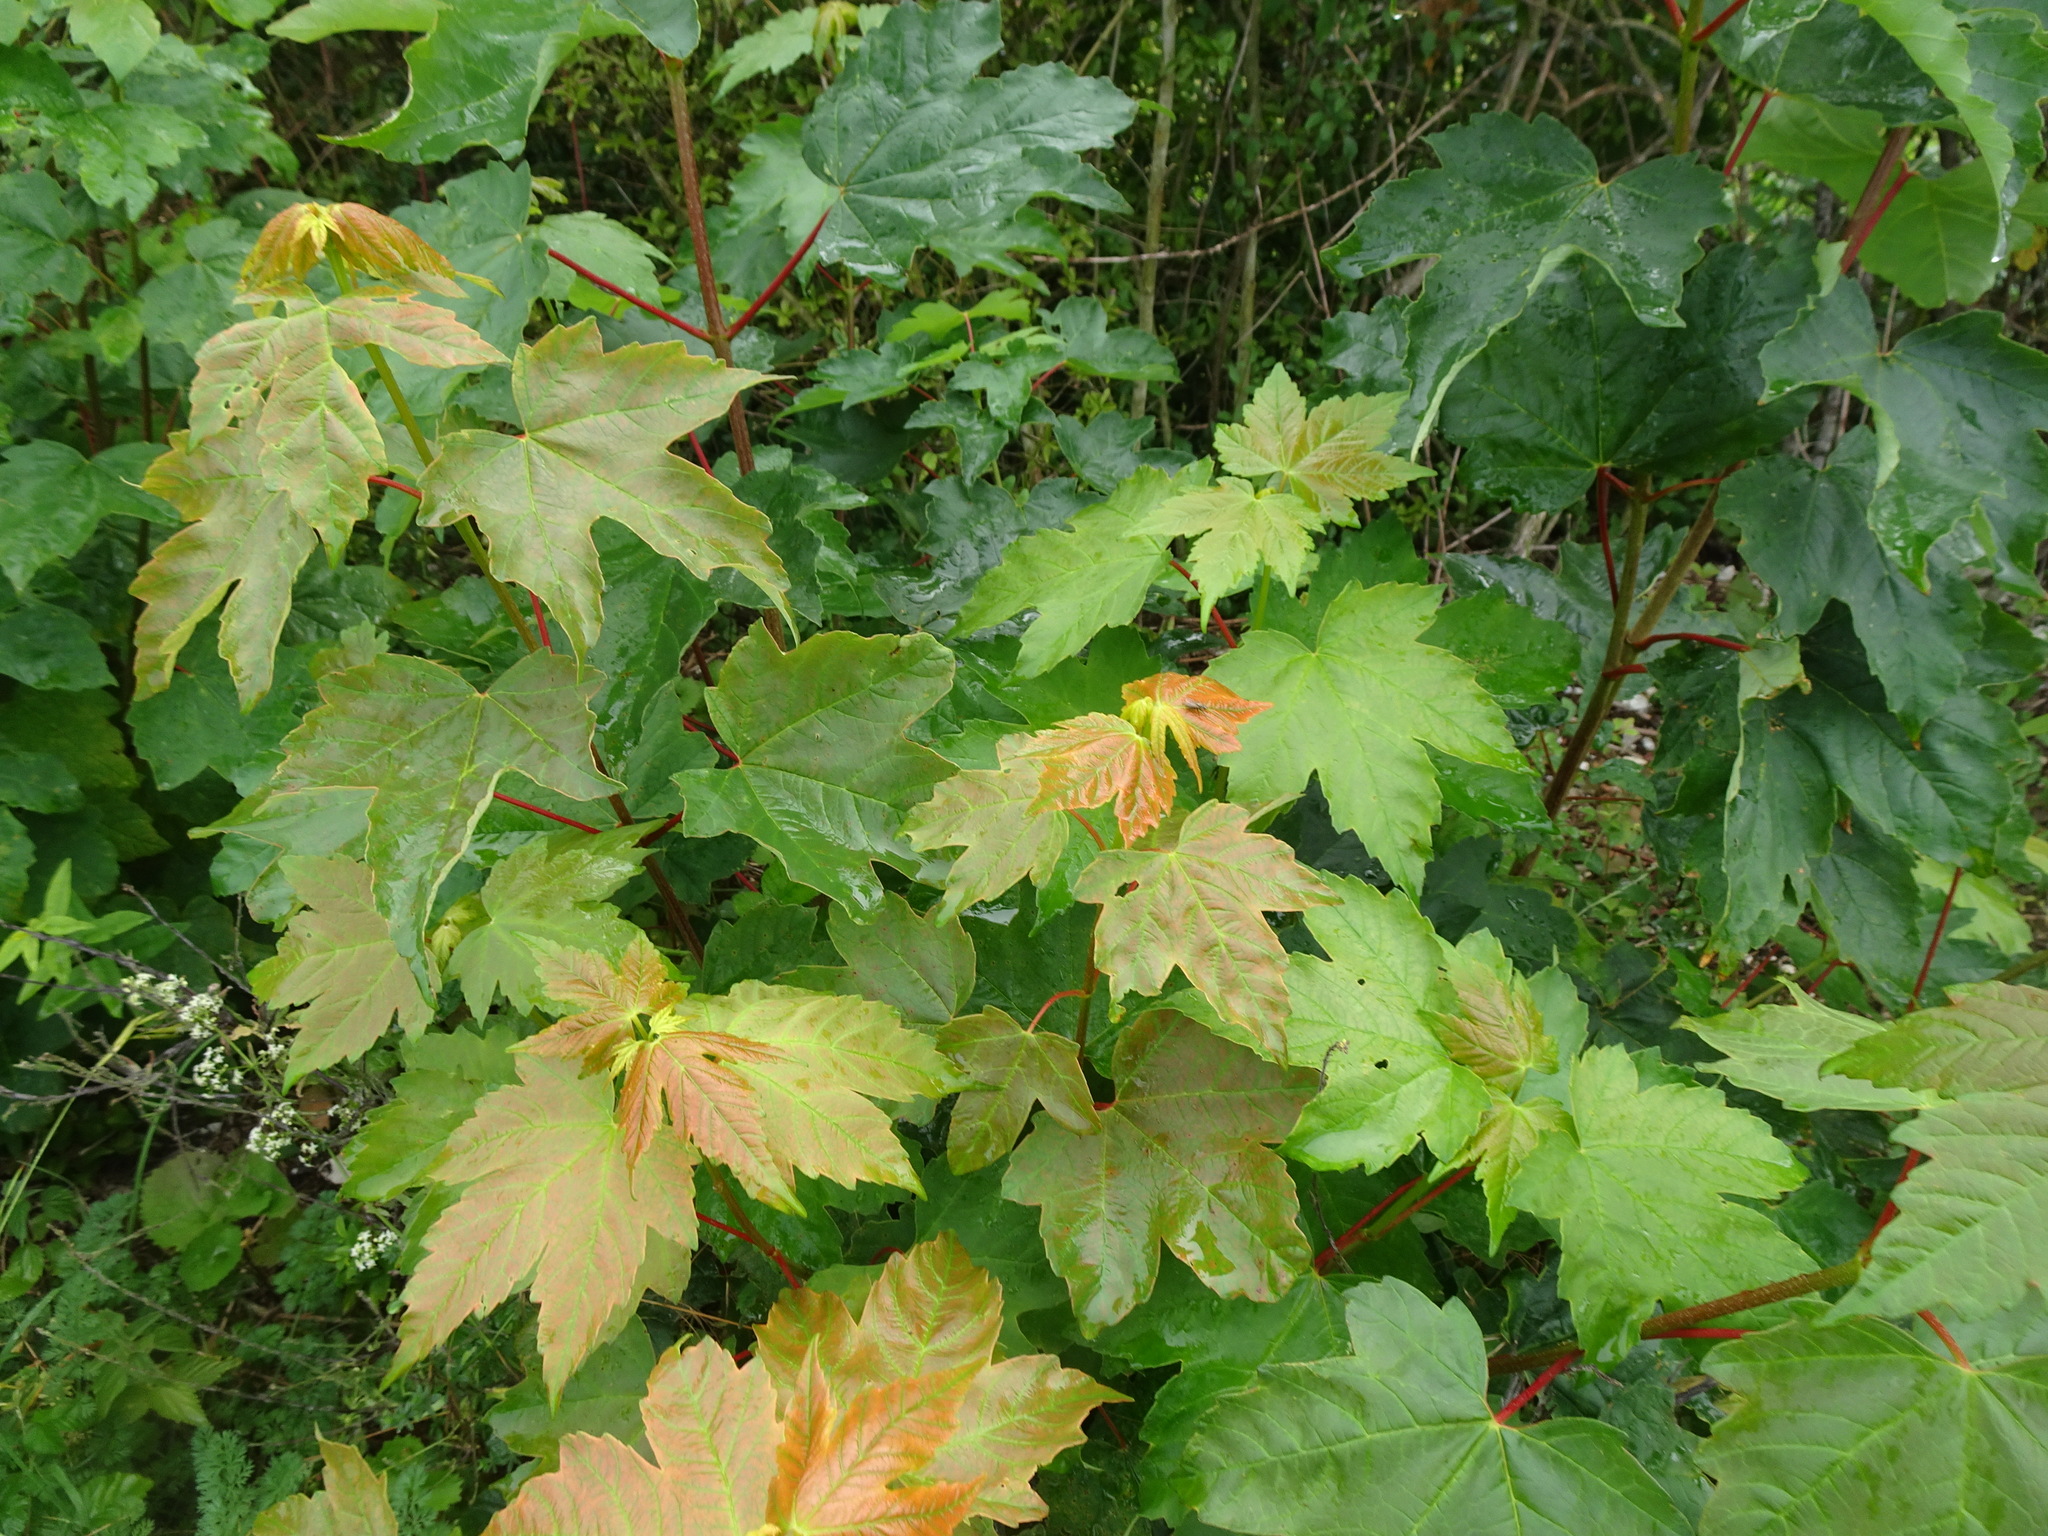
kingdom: Plantae
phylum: Tracheophyta
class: Magnoliopsida
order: Sapindales
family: Sapindaceae
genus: Acer
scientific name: Acer pseudoplatanus
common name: Sycamore
